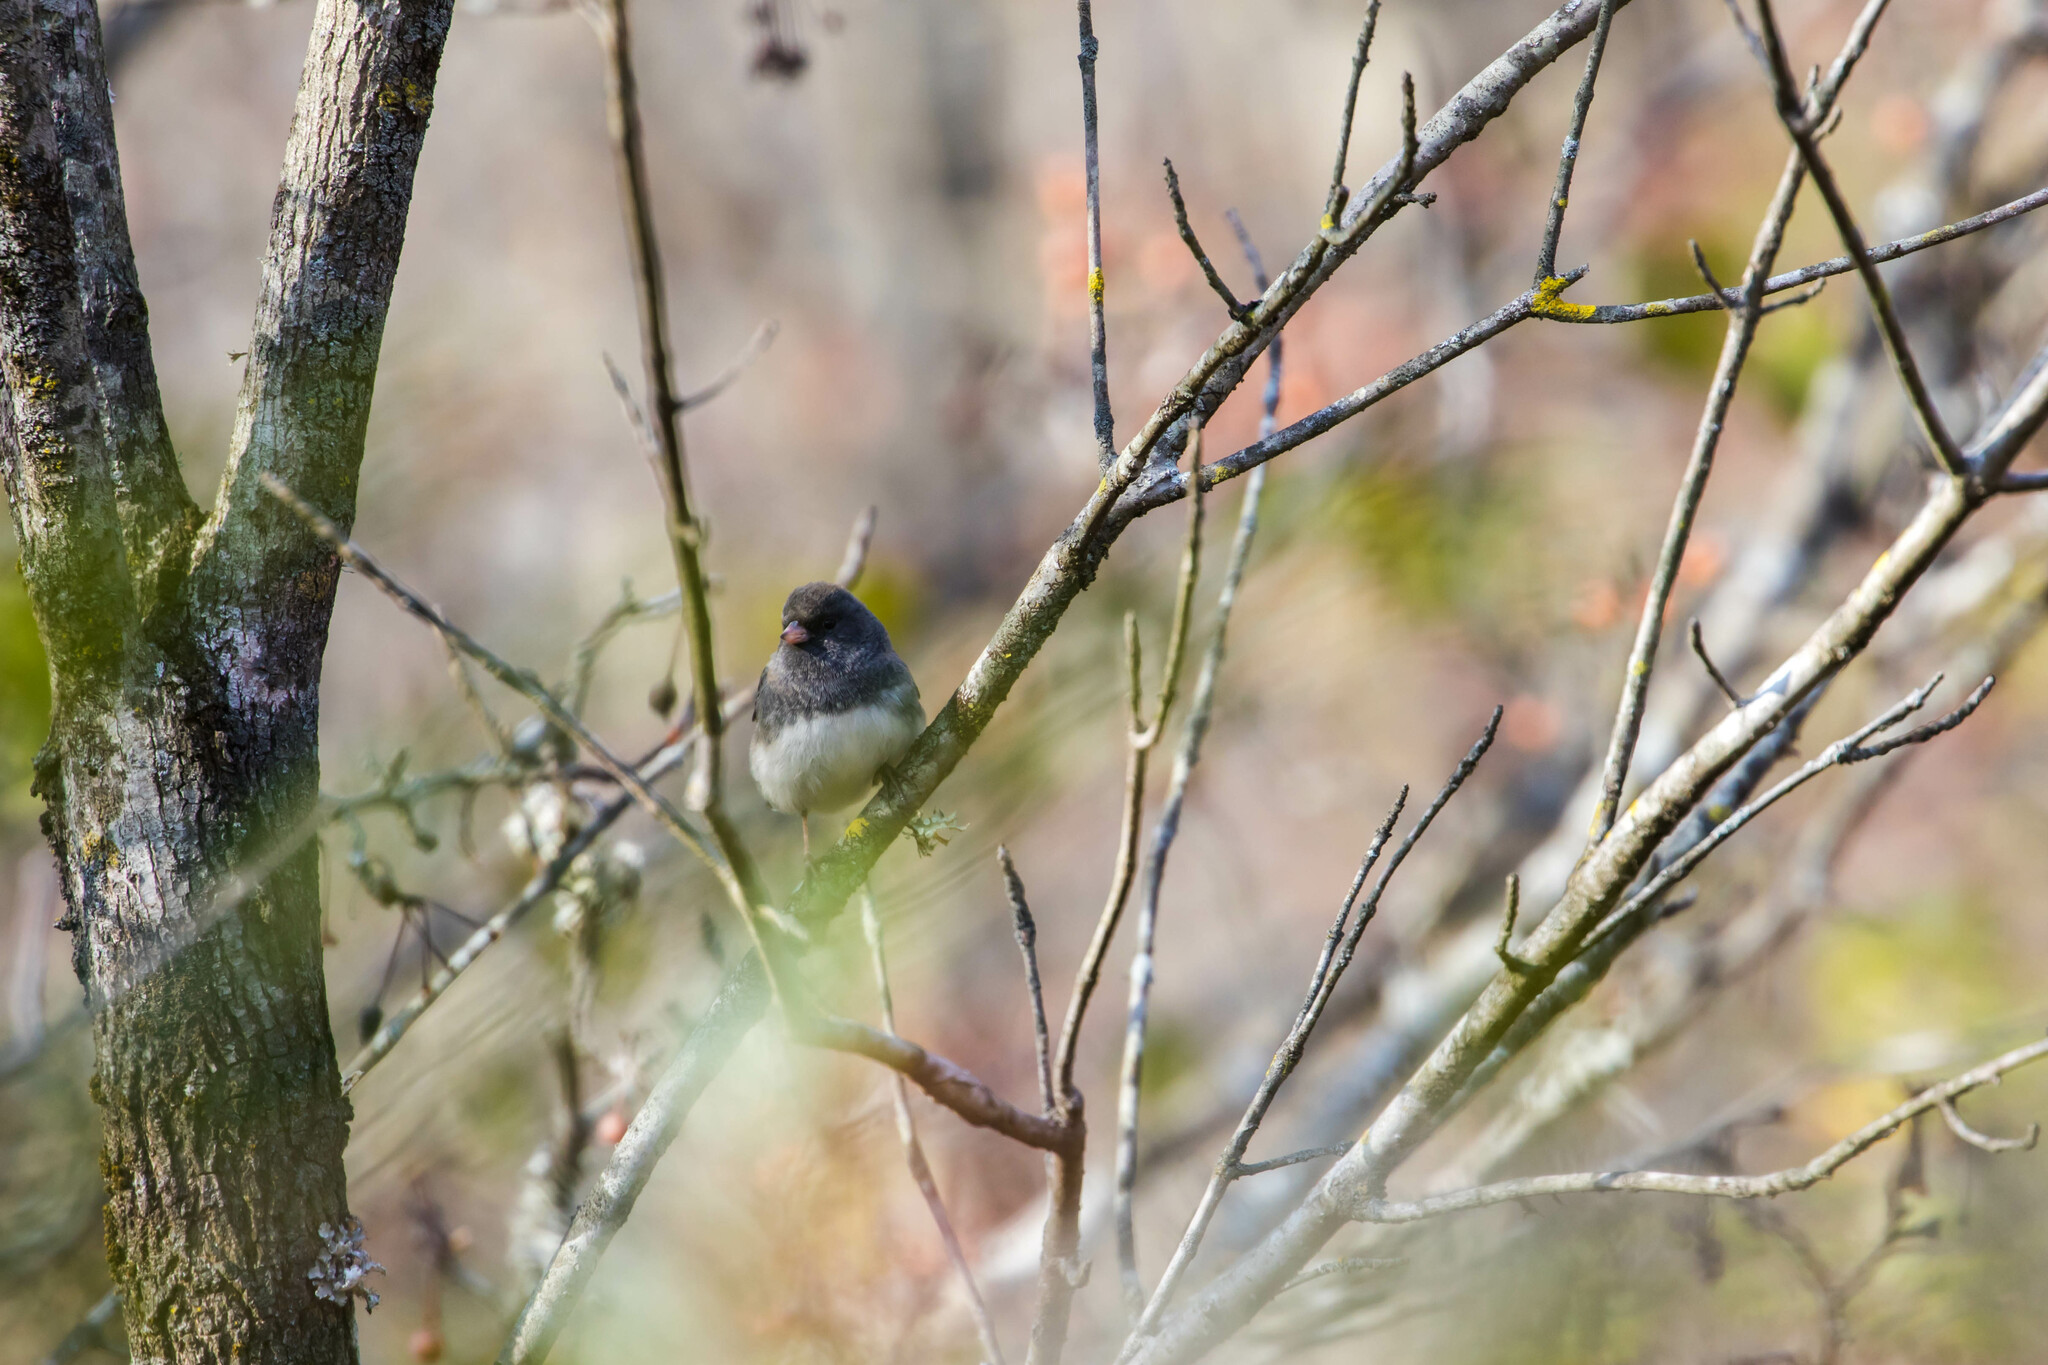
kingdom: Animalia
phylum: Chordata
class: Aves
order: Passeriformes
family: Passerellidae
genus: Junco
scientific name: Junco hyemalis
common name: Dark-eyed junco
